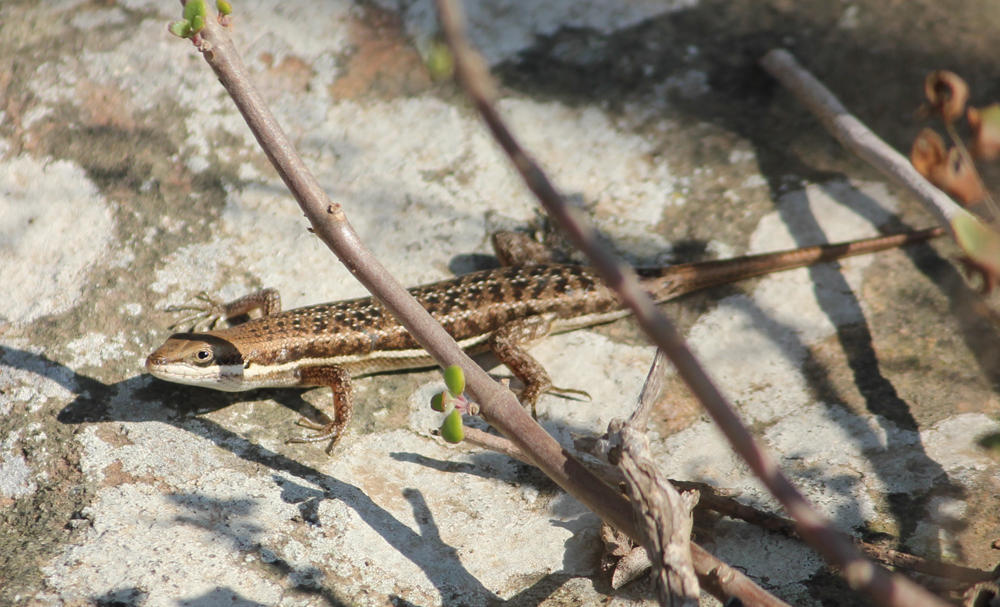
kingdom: Animalia
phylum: Chordata
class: Squamata
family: Scincidae
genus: Trachylepis
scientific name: Trachylepis varia
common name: Eastern variable skink
